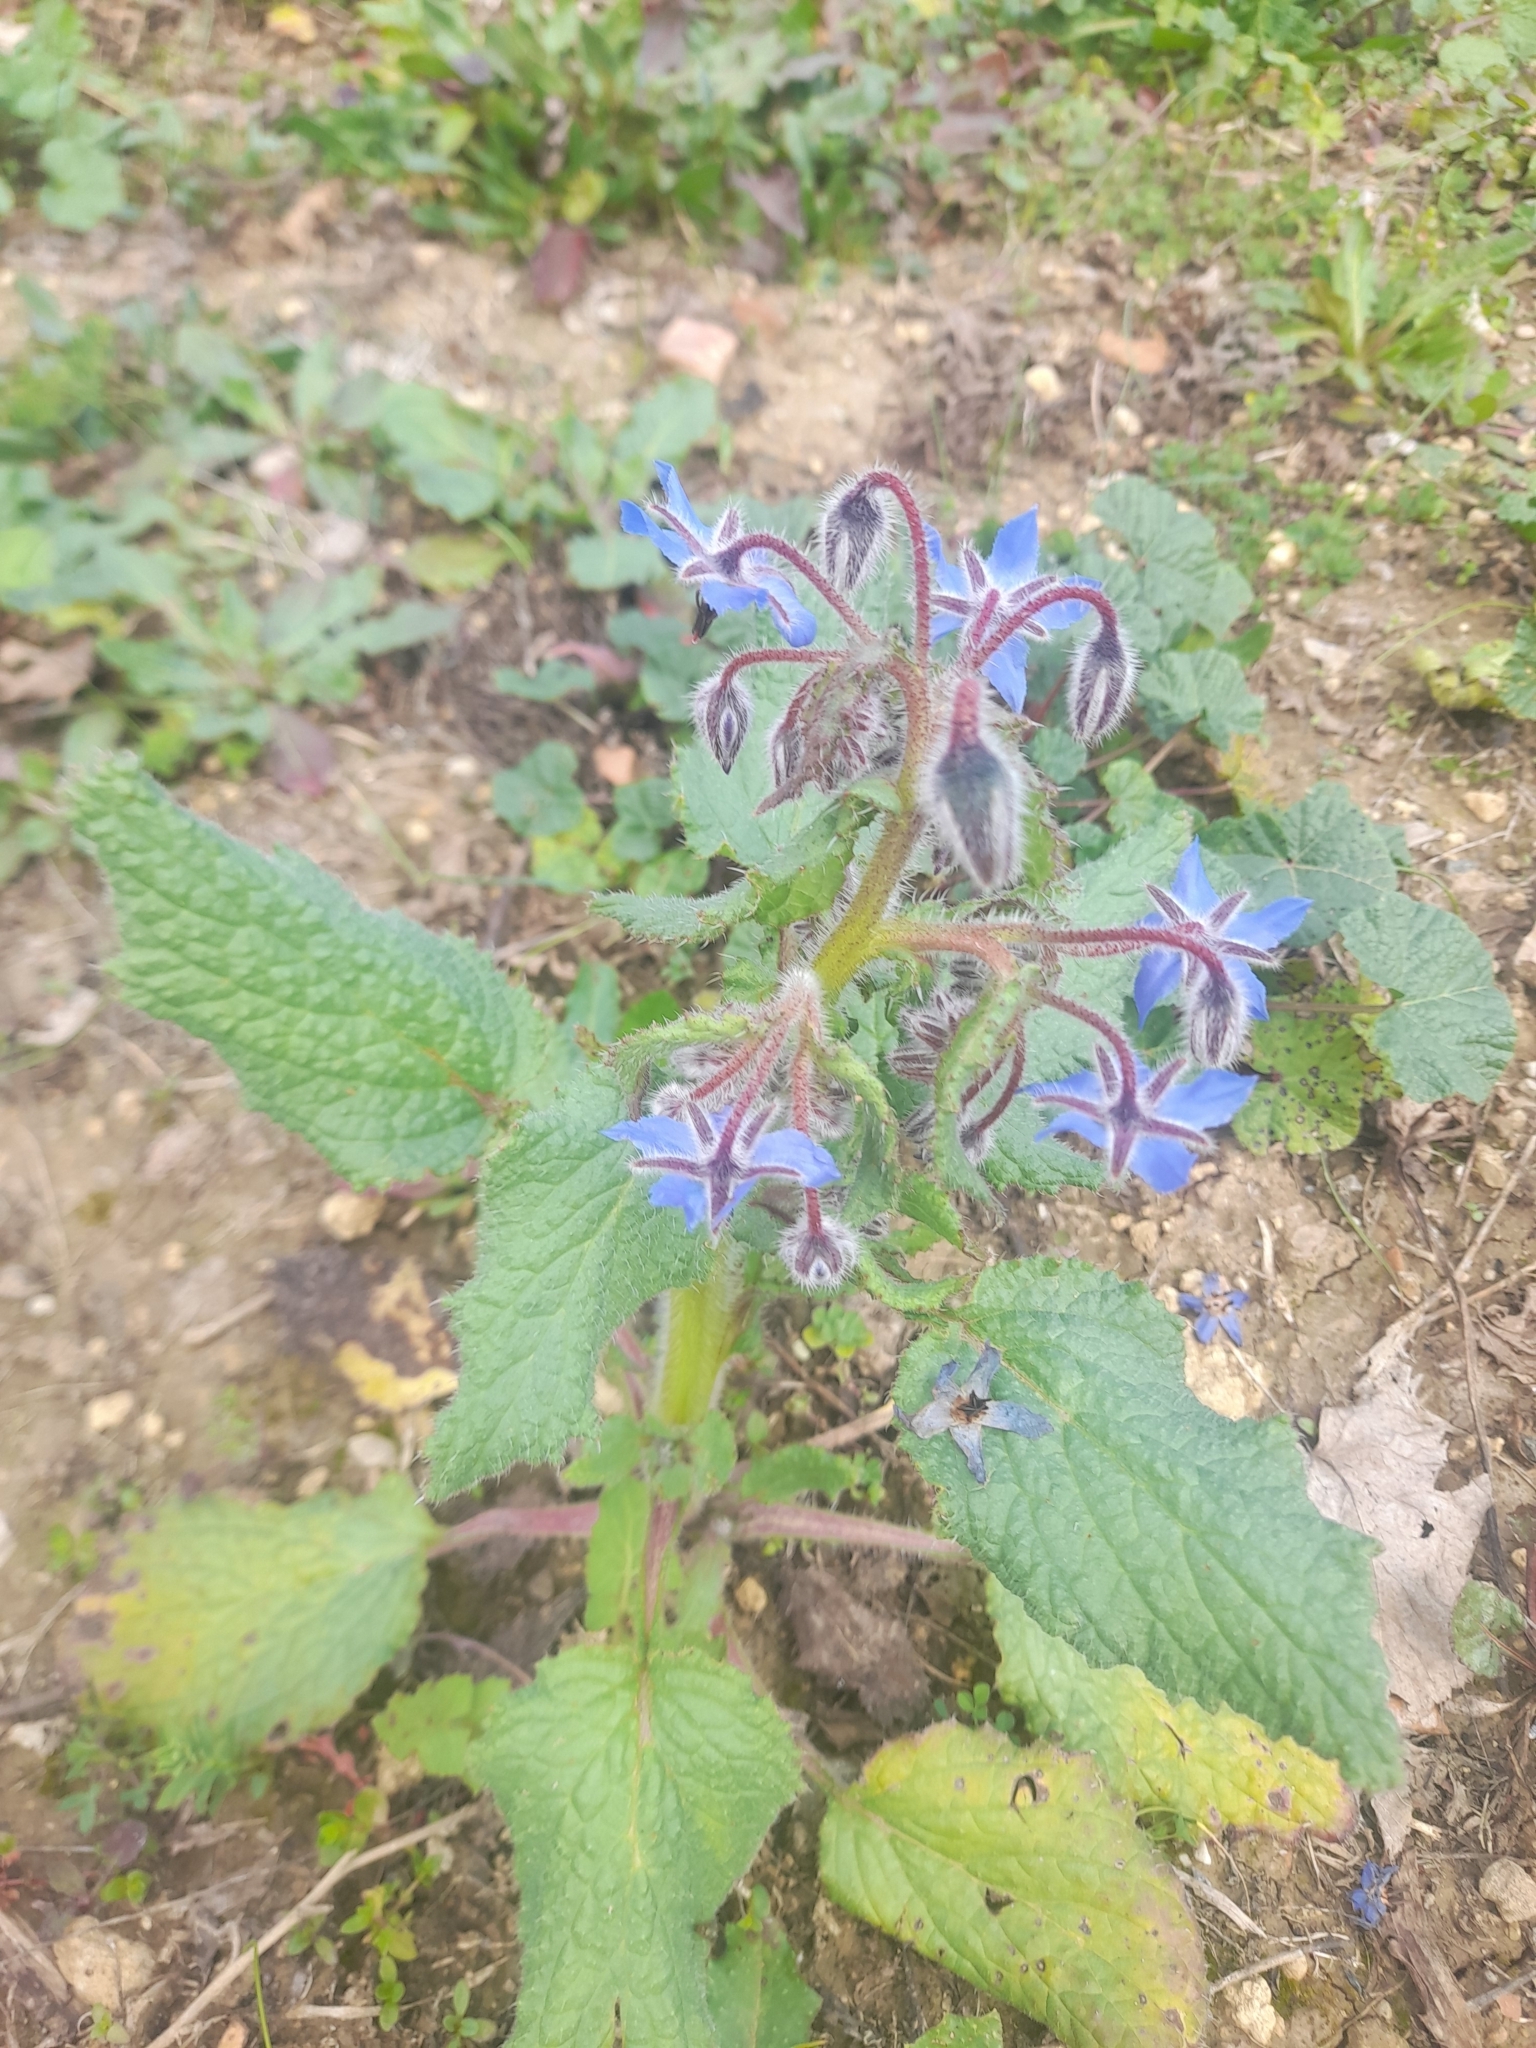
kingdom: Plantae
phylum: Tracheophyta
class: Magnoliopsida
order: Boraginales
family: Boraginaceae
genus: Borago
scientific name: Borago officinalis
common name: Borage
